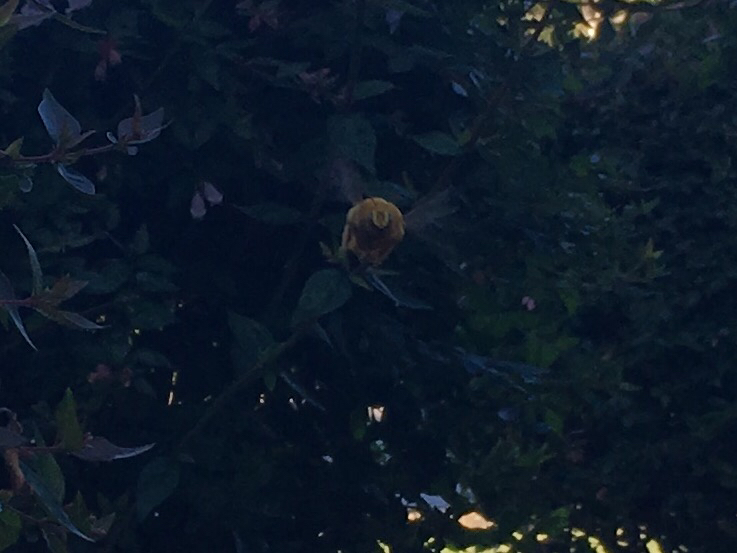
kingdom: Animalia
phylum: Arthropoda
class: Insecta
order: Hymenoptera
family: Apidae
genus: Xylocopa
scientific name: Xylocopa sonorina
